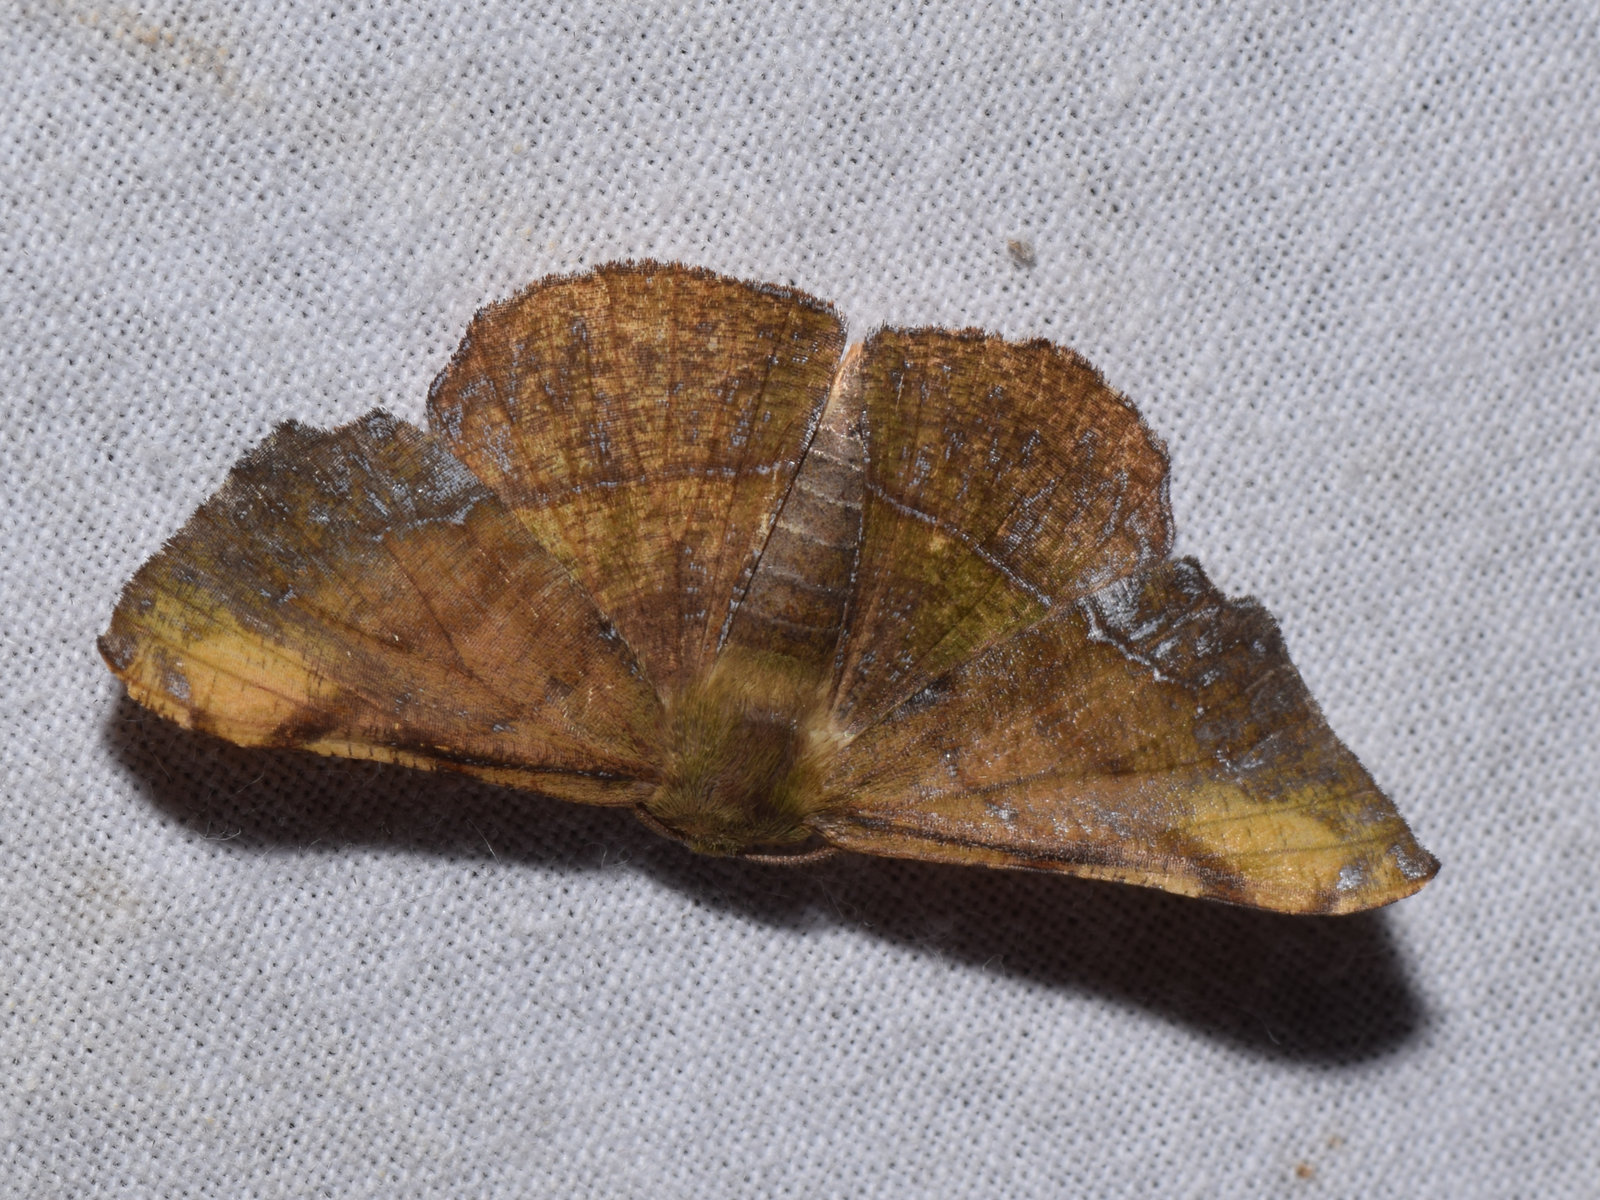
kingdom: Animalia
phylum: Arthropoda
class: Insecta
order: Lepidoptera
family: Geometridae
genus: Fascellina
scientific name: Fascellina inconspicua
